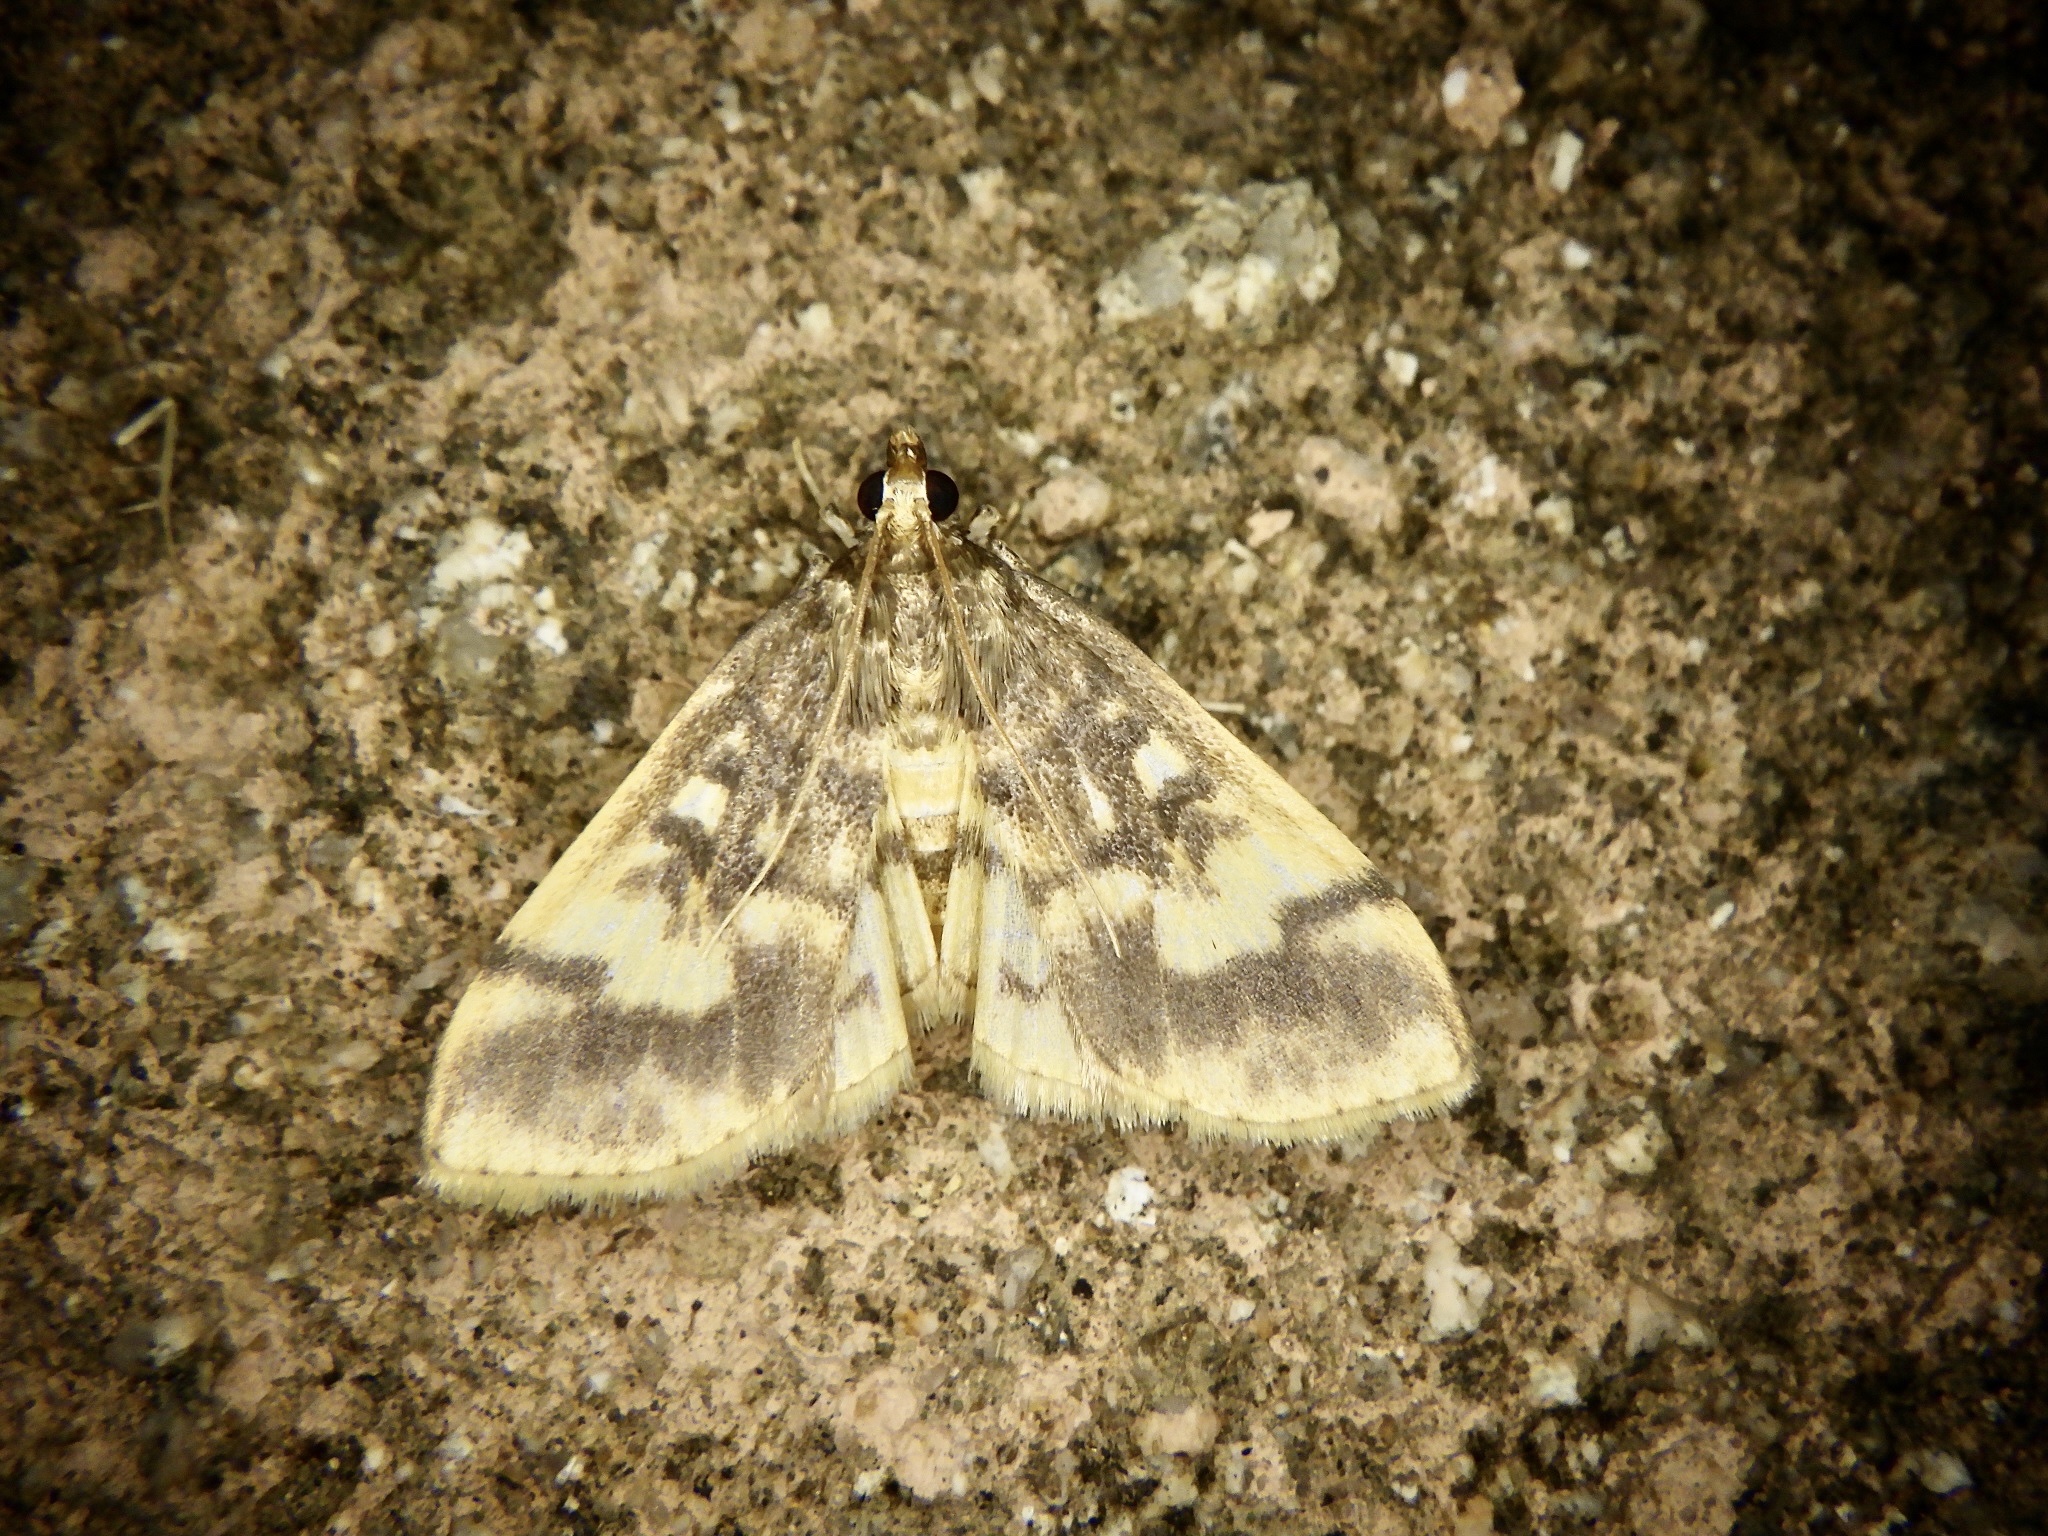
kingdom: Animalia
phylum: Arthropoda
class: Insecta
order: Lepidoptera
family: Crambidae
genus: Pseudebulea
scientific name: Pseudebulea fentoni
